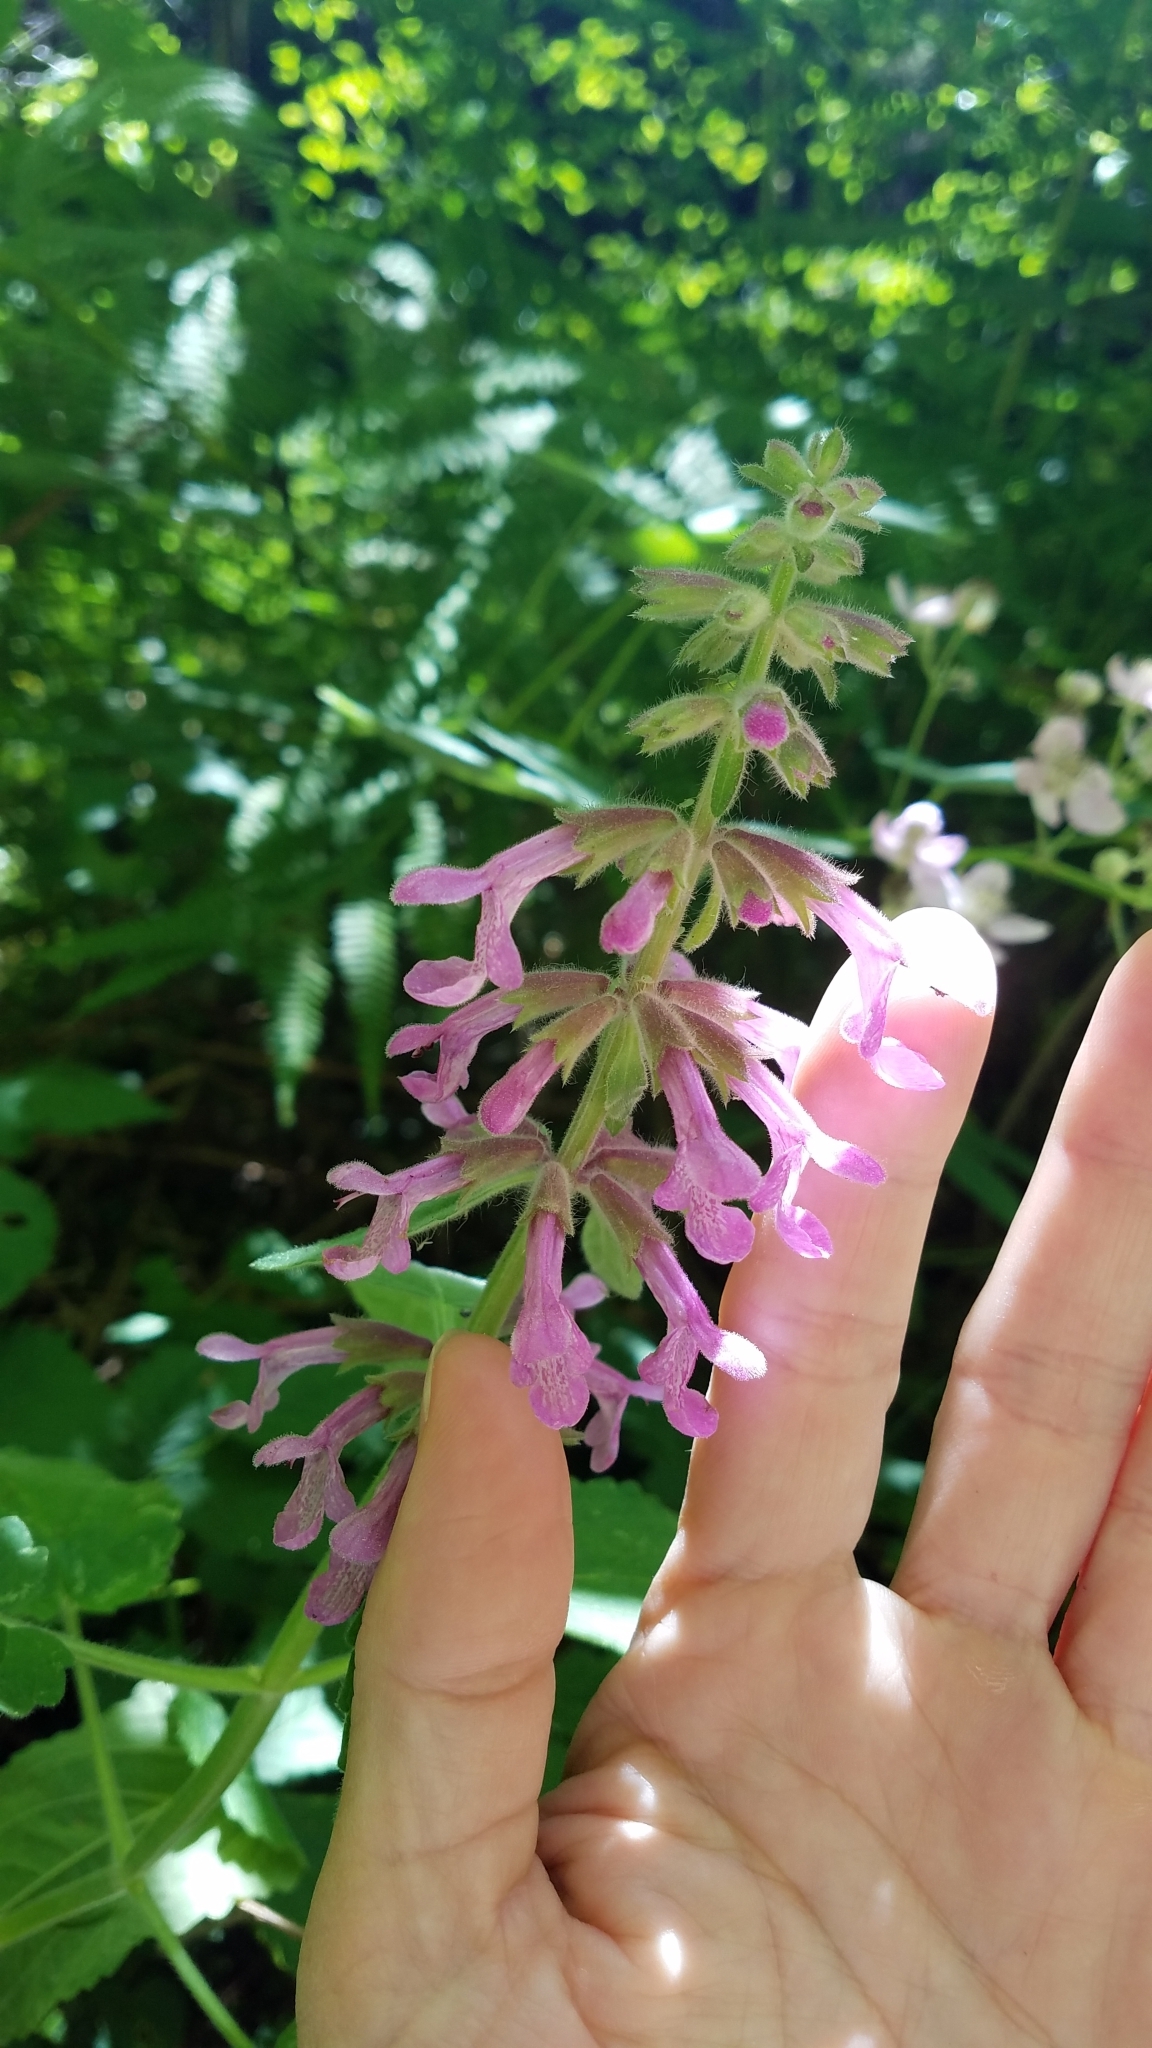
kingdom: Plantae
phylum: Tracheophyta
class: Magnoliopsida
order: Lamiales
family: Lamiaceae
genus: Stachys
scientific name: Stachys chamissonis
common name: Coastal hedge-nettle
